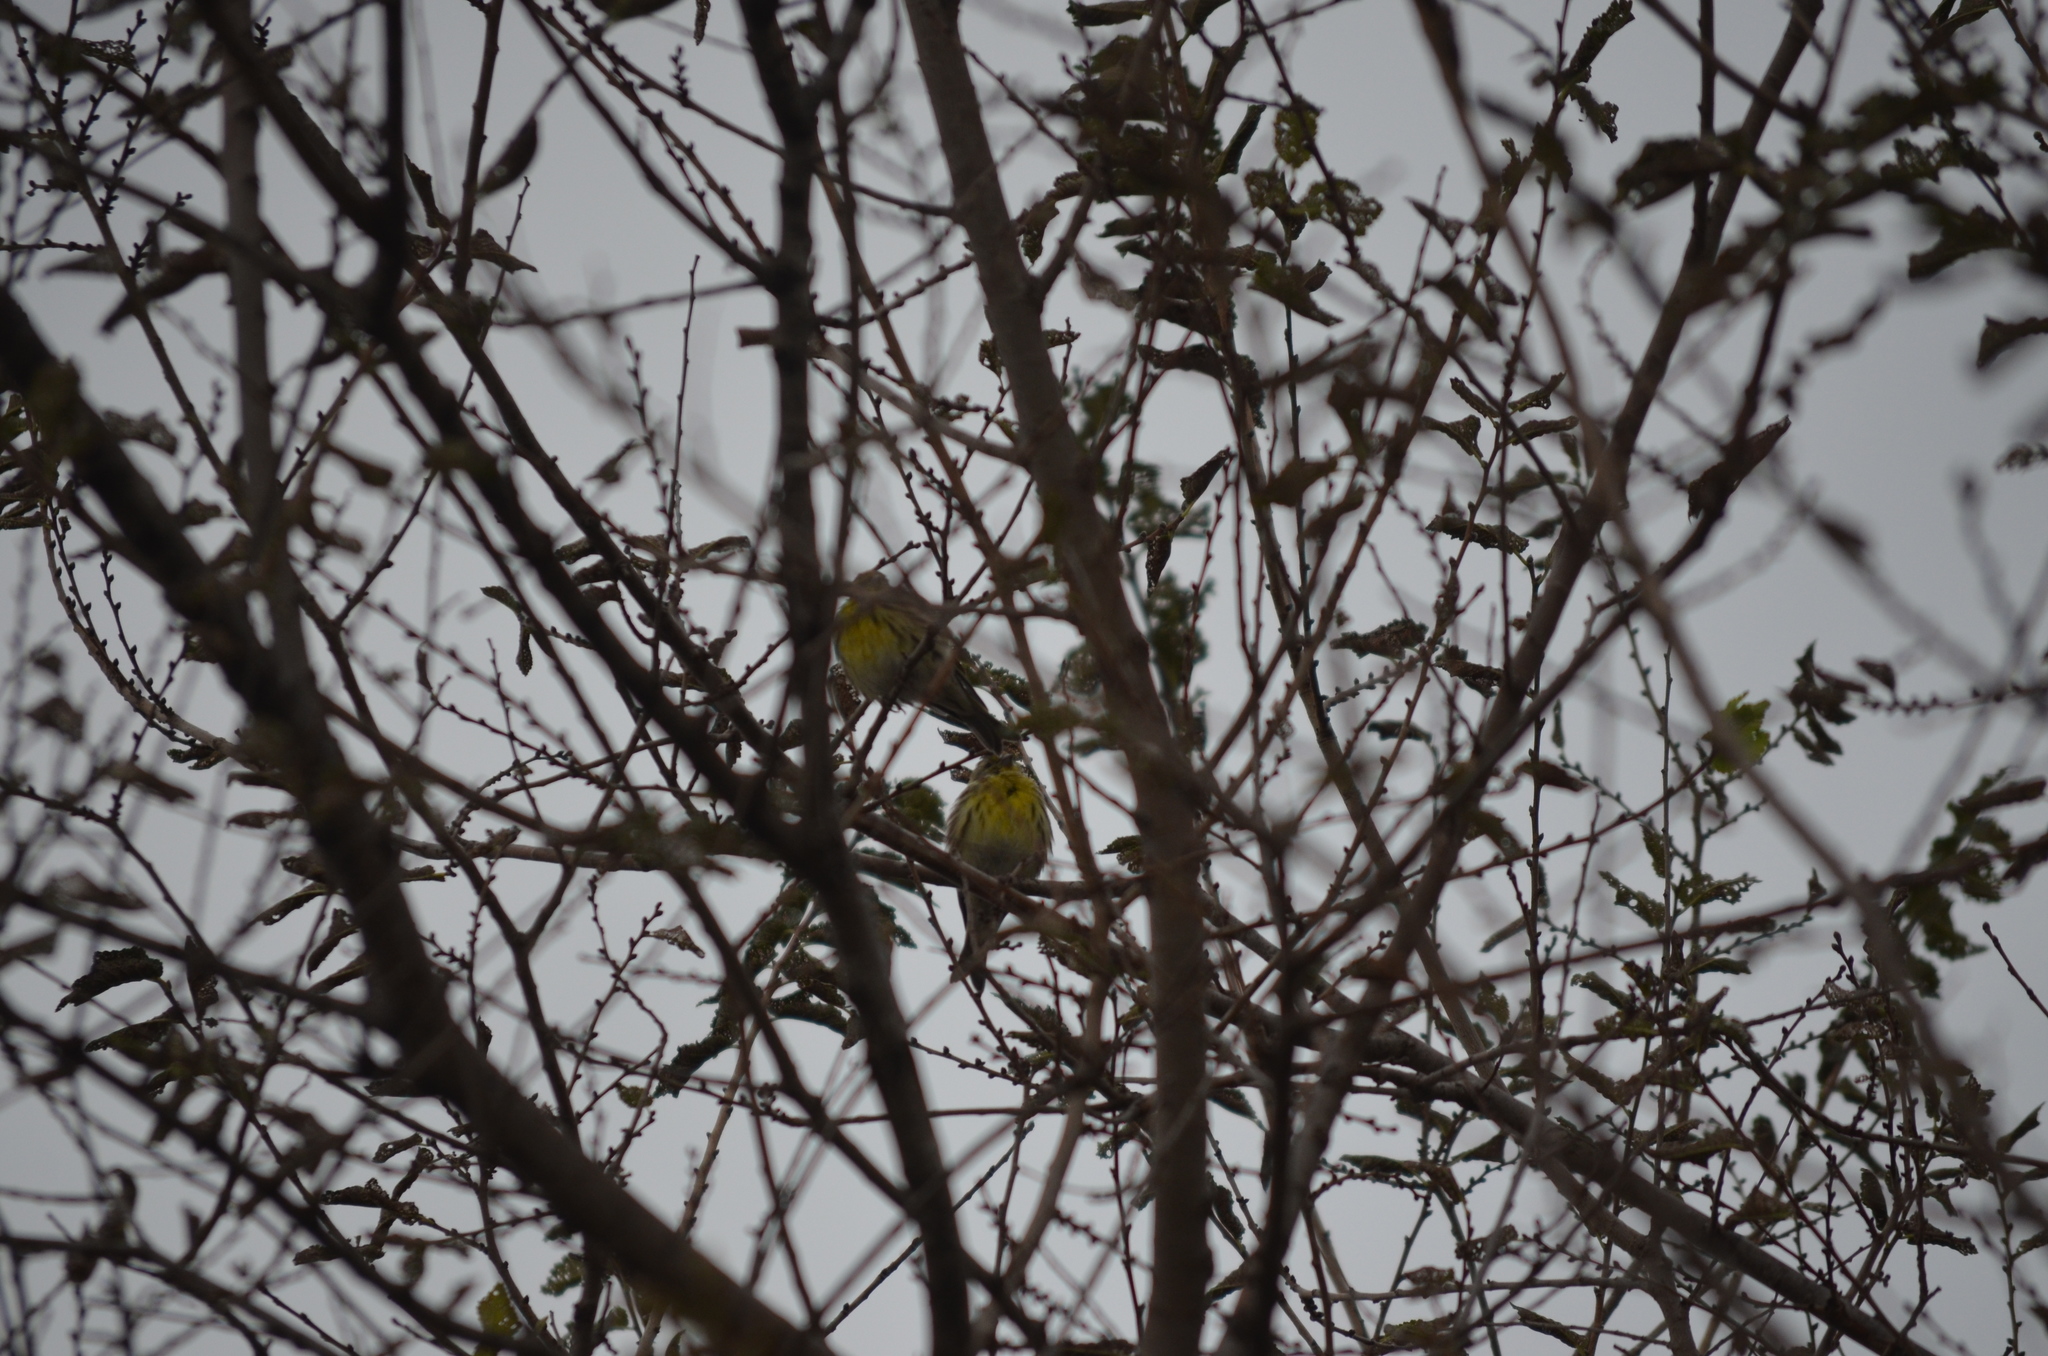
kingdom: Animalia
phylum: Chordata
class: Aves
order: Passeriformes
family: Fringillidae
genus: Serinus
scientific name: Serinus serinus
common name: European serin
